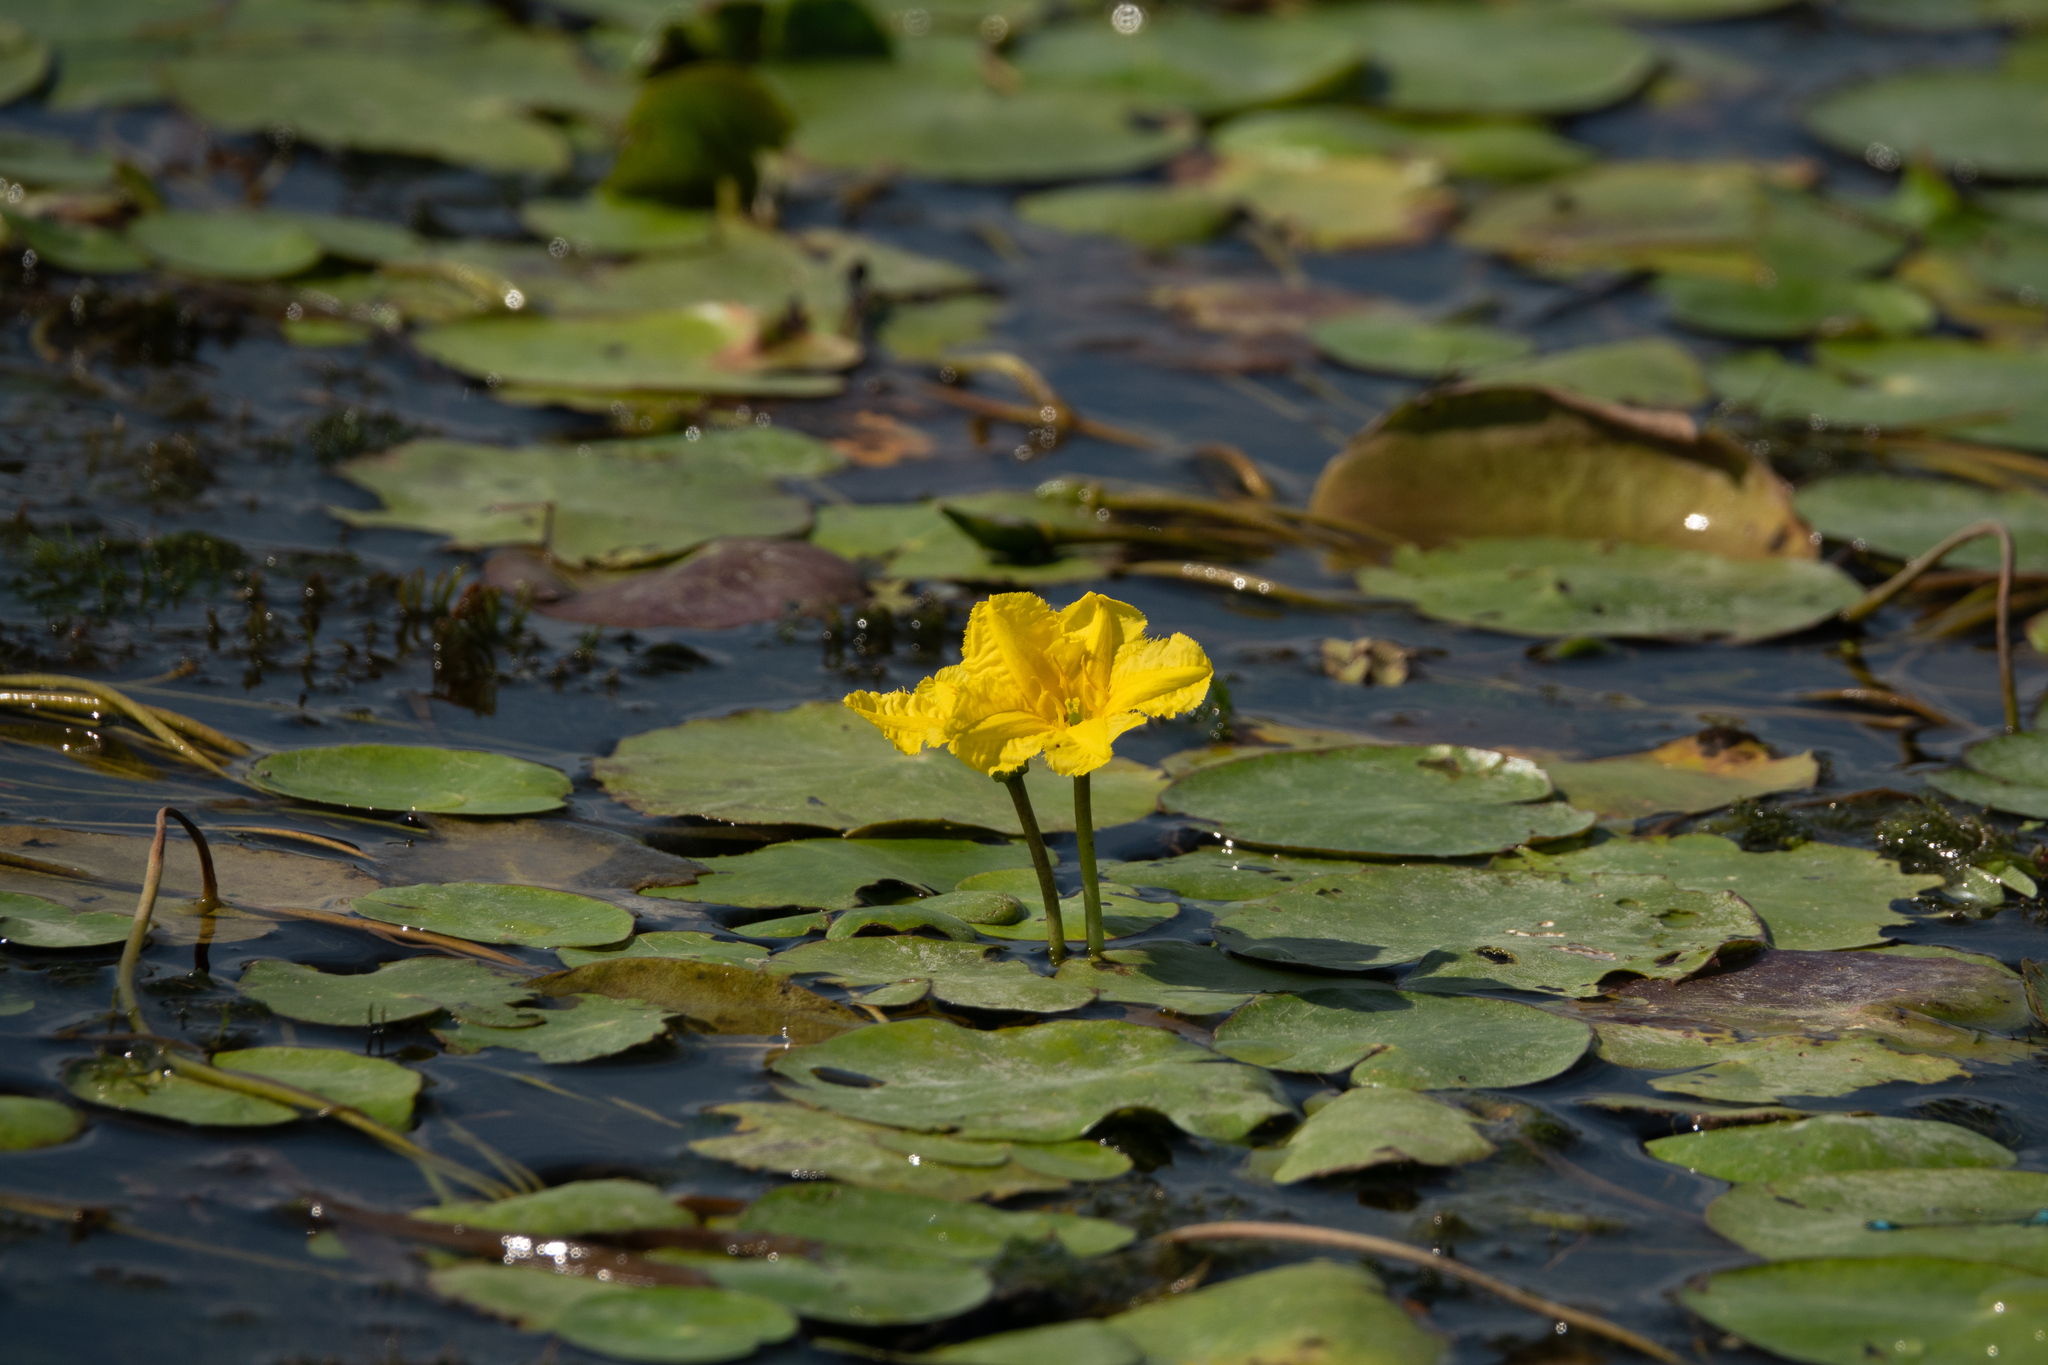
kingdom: Plantae
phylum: Tracheophyta
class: Magnoliopsida
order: Asterales
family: Menyanthaceae
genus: Nymphoides
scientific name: Nymphoides peltata
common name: Fringed water-lily
